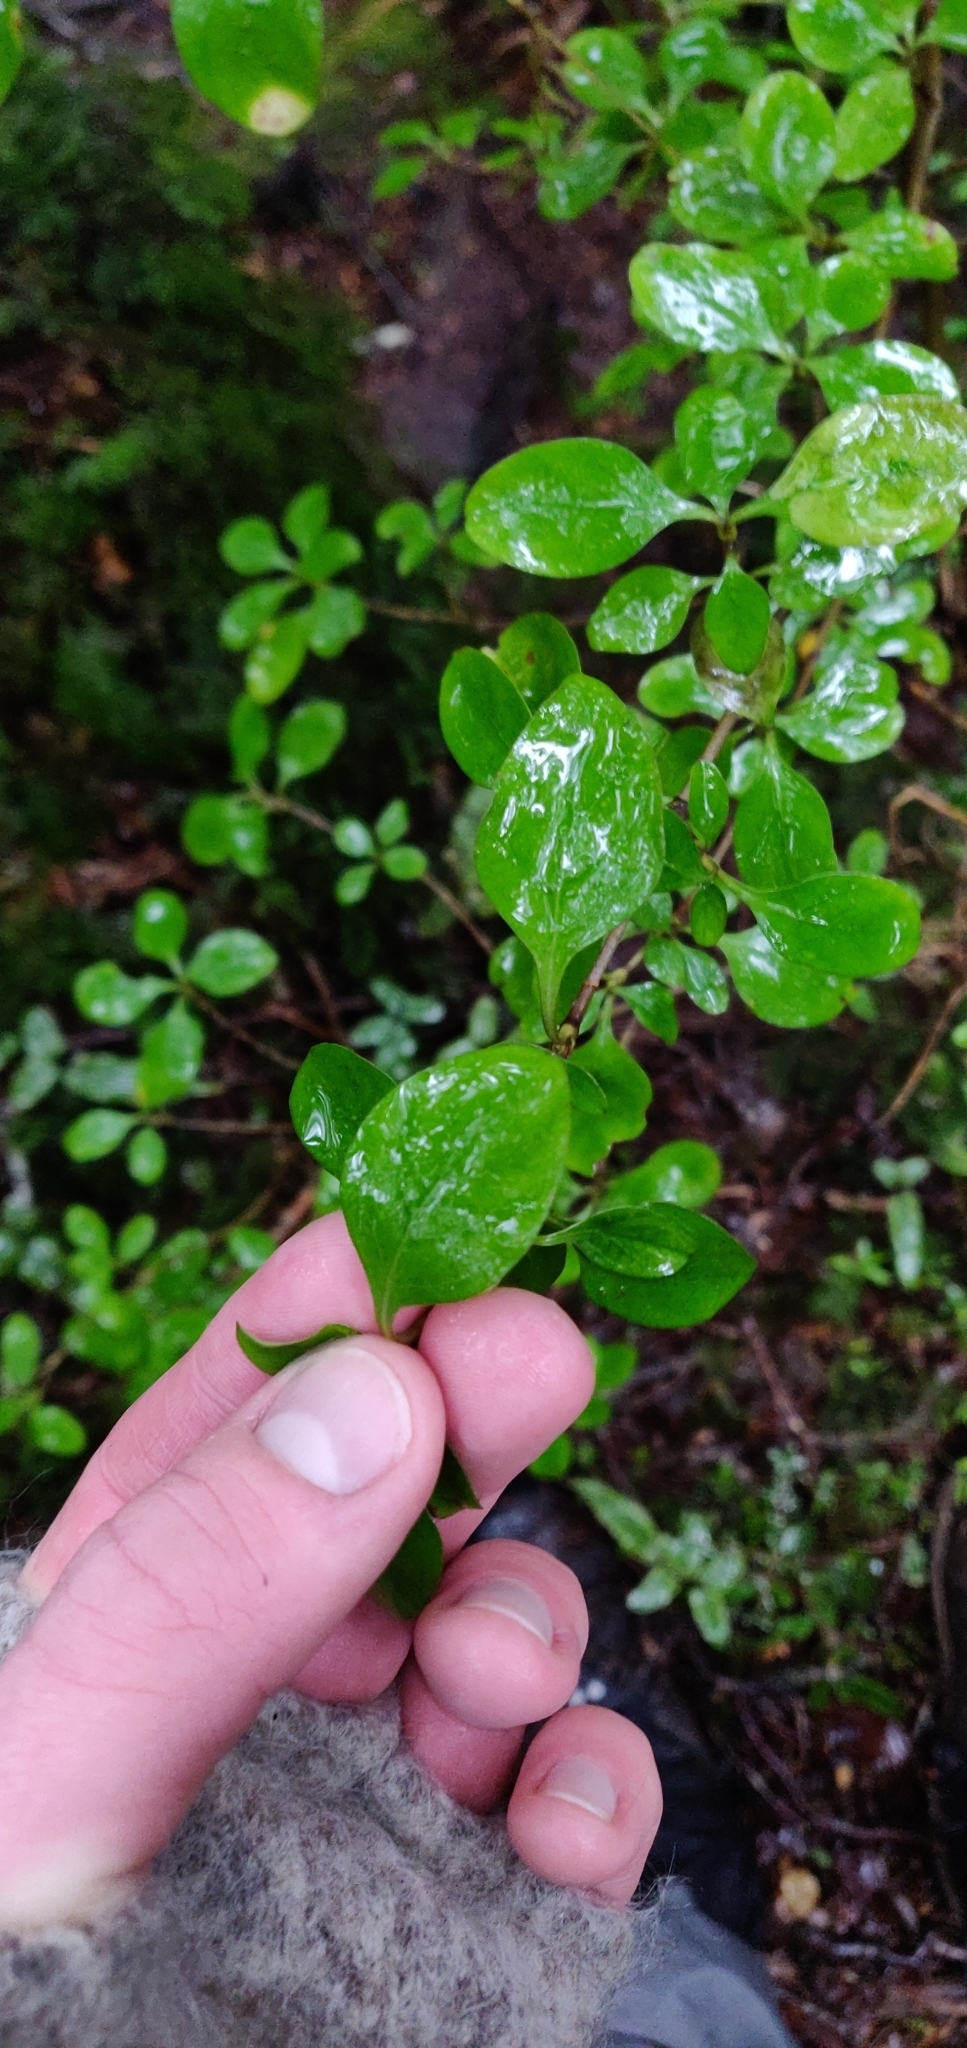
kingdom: Plantae
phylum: Tracheophyta
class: Magnoliopsida
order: Gentianales
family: Rubiaceae
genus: Coprosma
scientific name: Coprosma foetidissima
